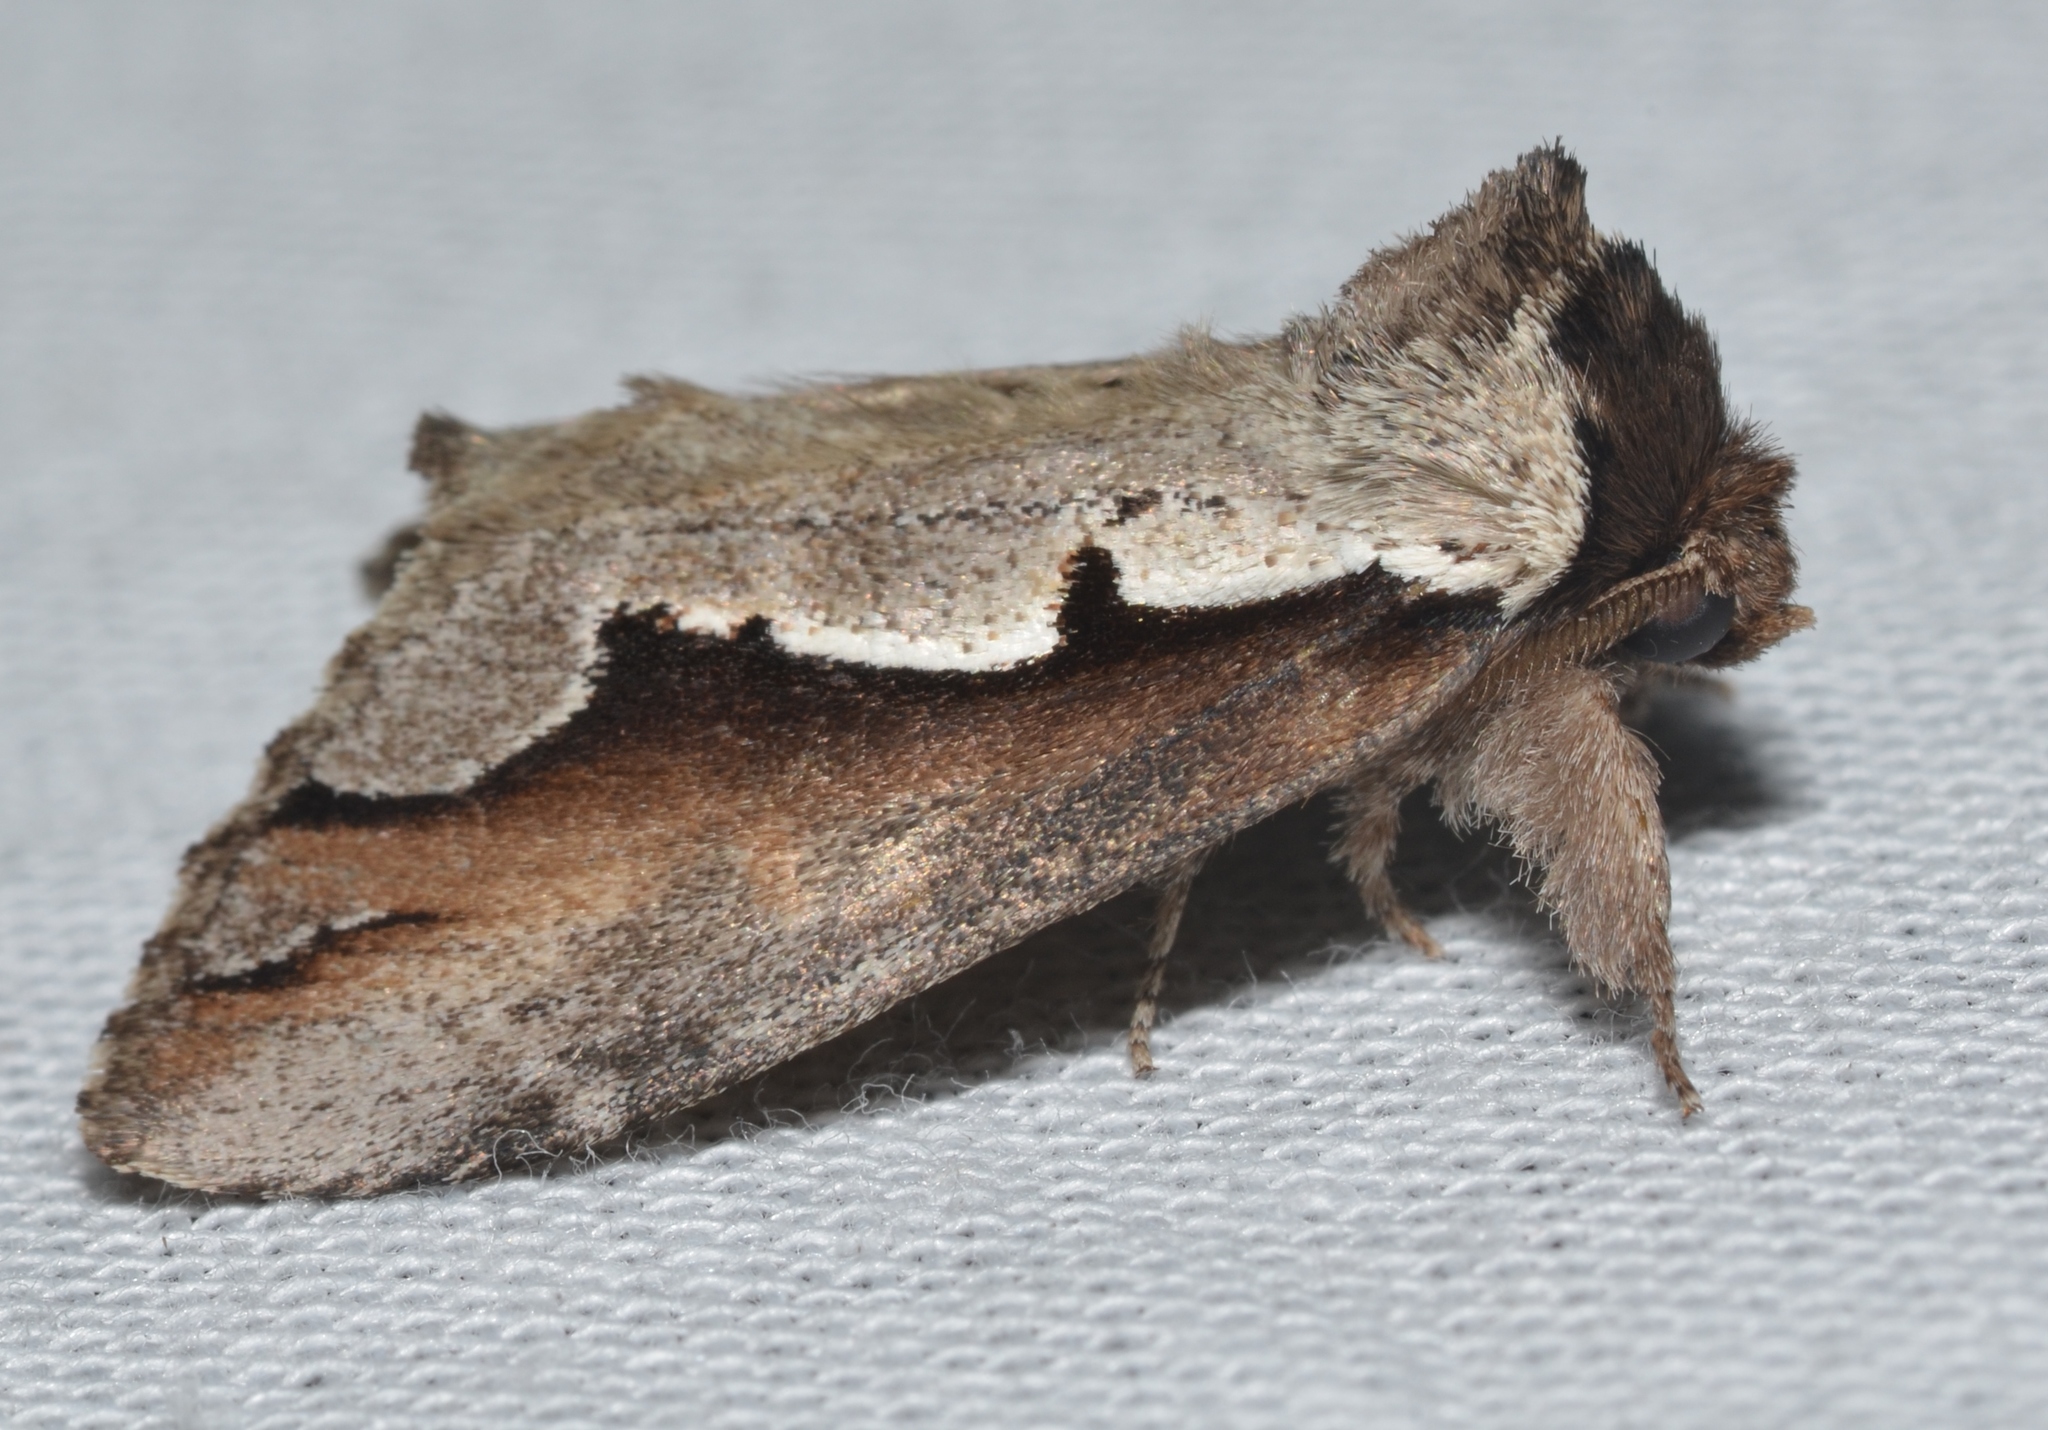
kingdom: Animalia
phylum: Arthropoda
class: Insecta
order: Lepidoptera
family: Notodontidae
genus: Nerice
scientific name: Nerice bidentata
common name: Double-toothed prominent
